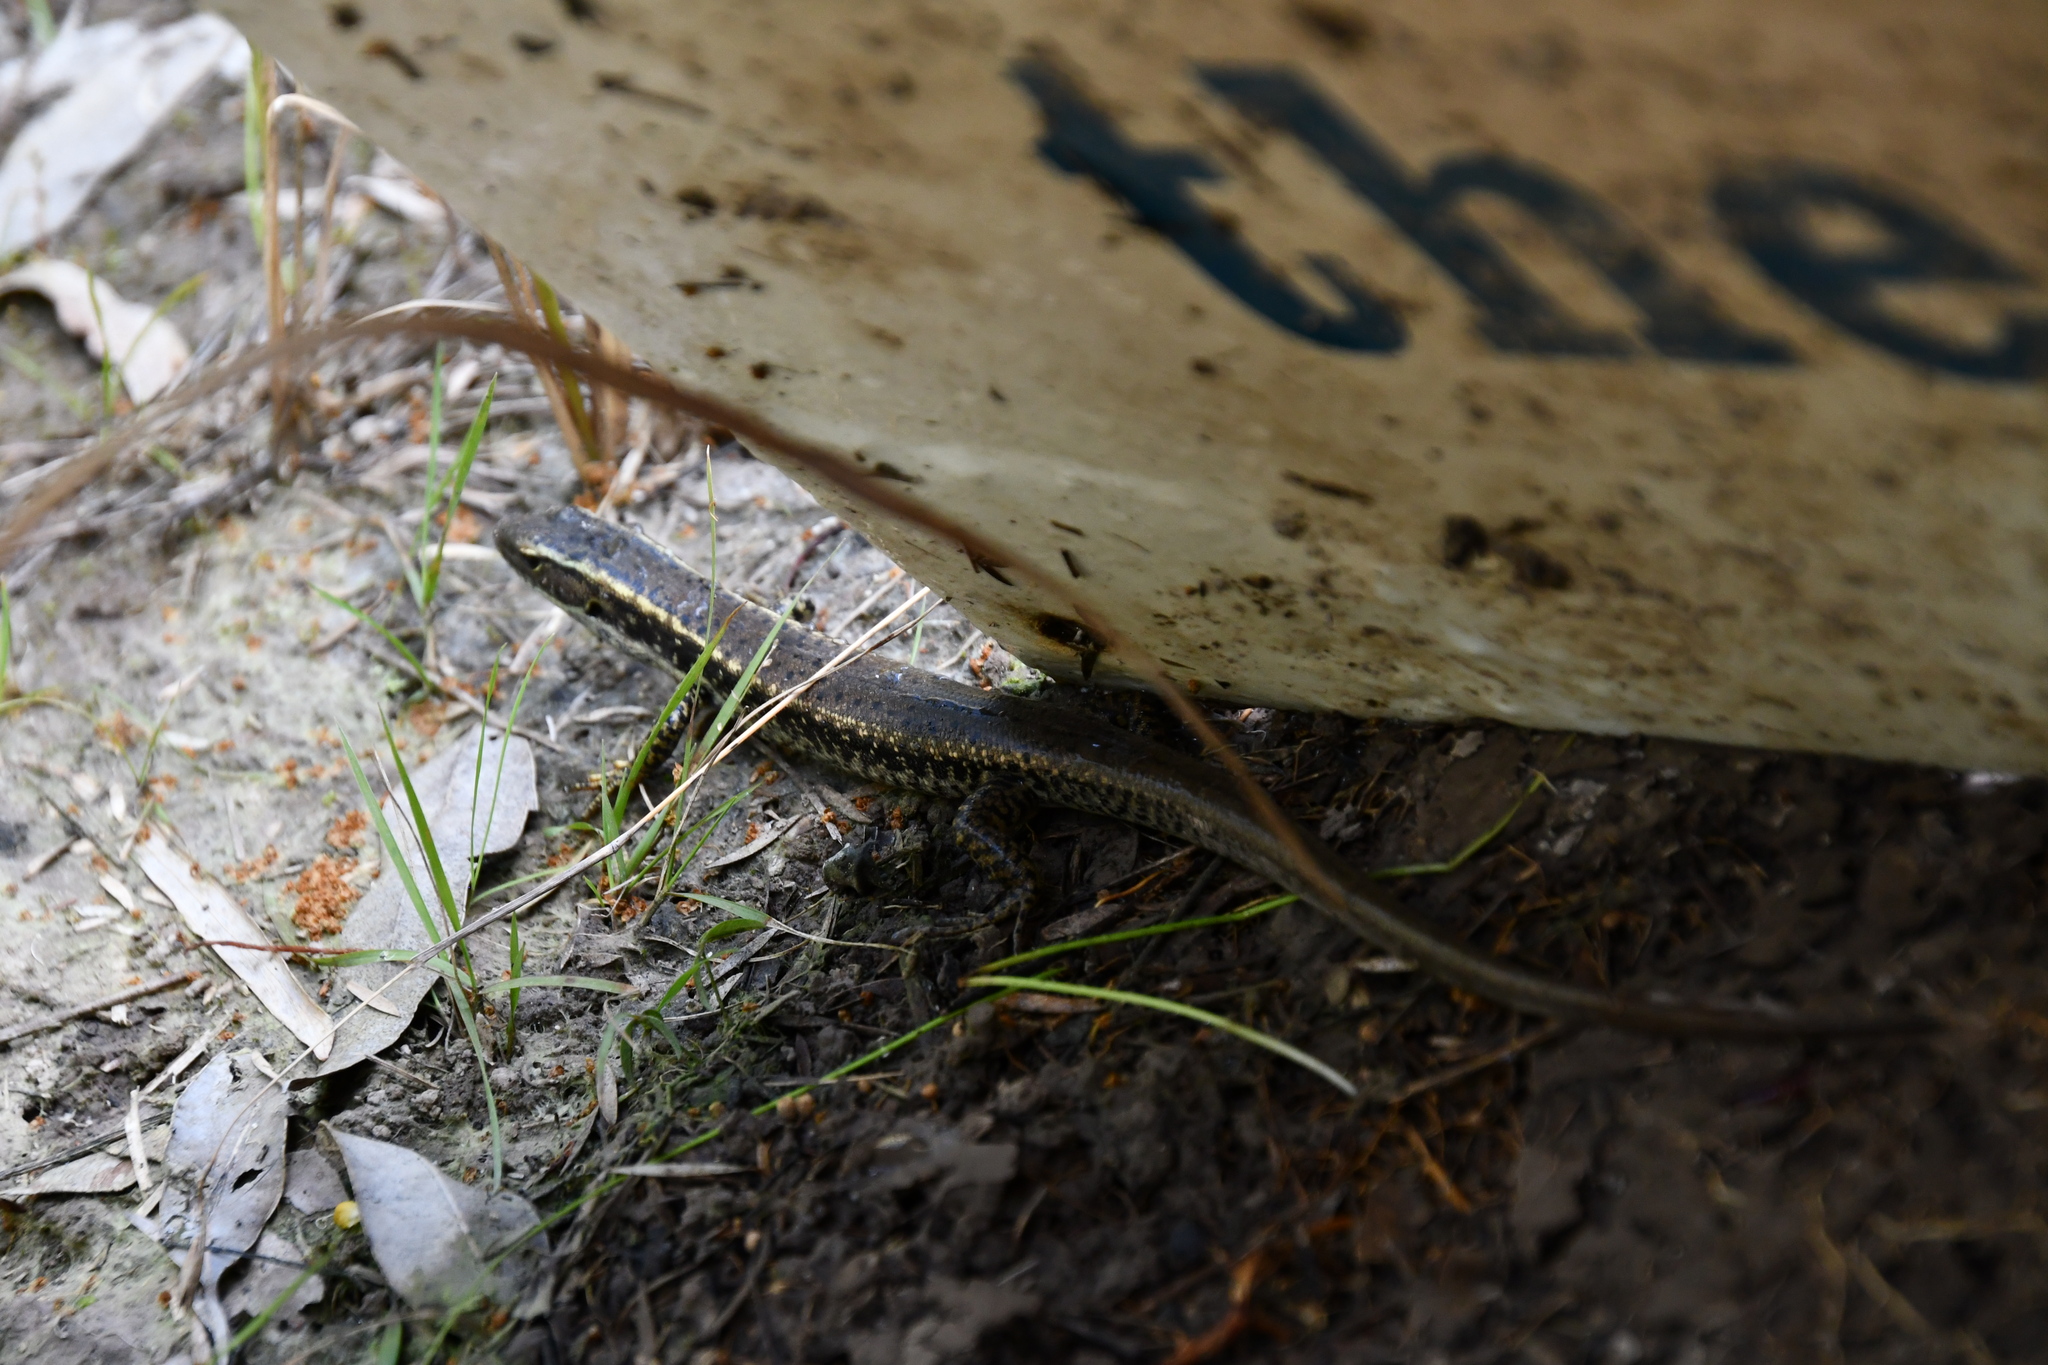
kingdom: Animalia
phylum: Chordata
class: Squamata
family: Scincidae
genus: Eulamprus
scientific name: Eulamprus quoyii
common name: Eastern water skink
